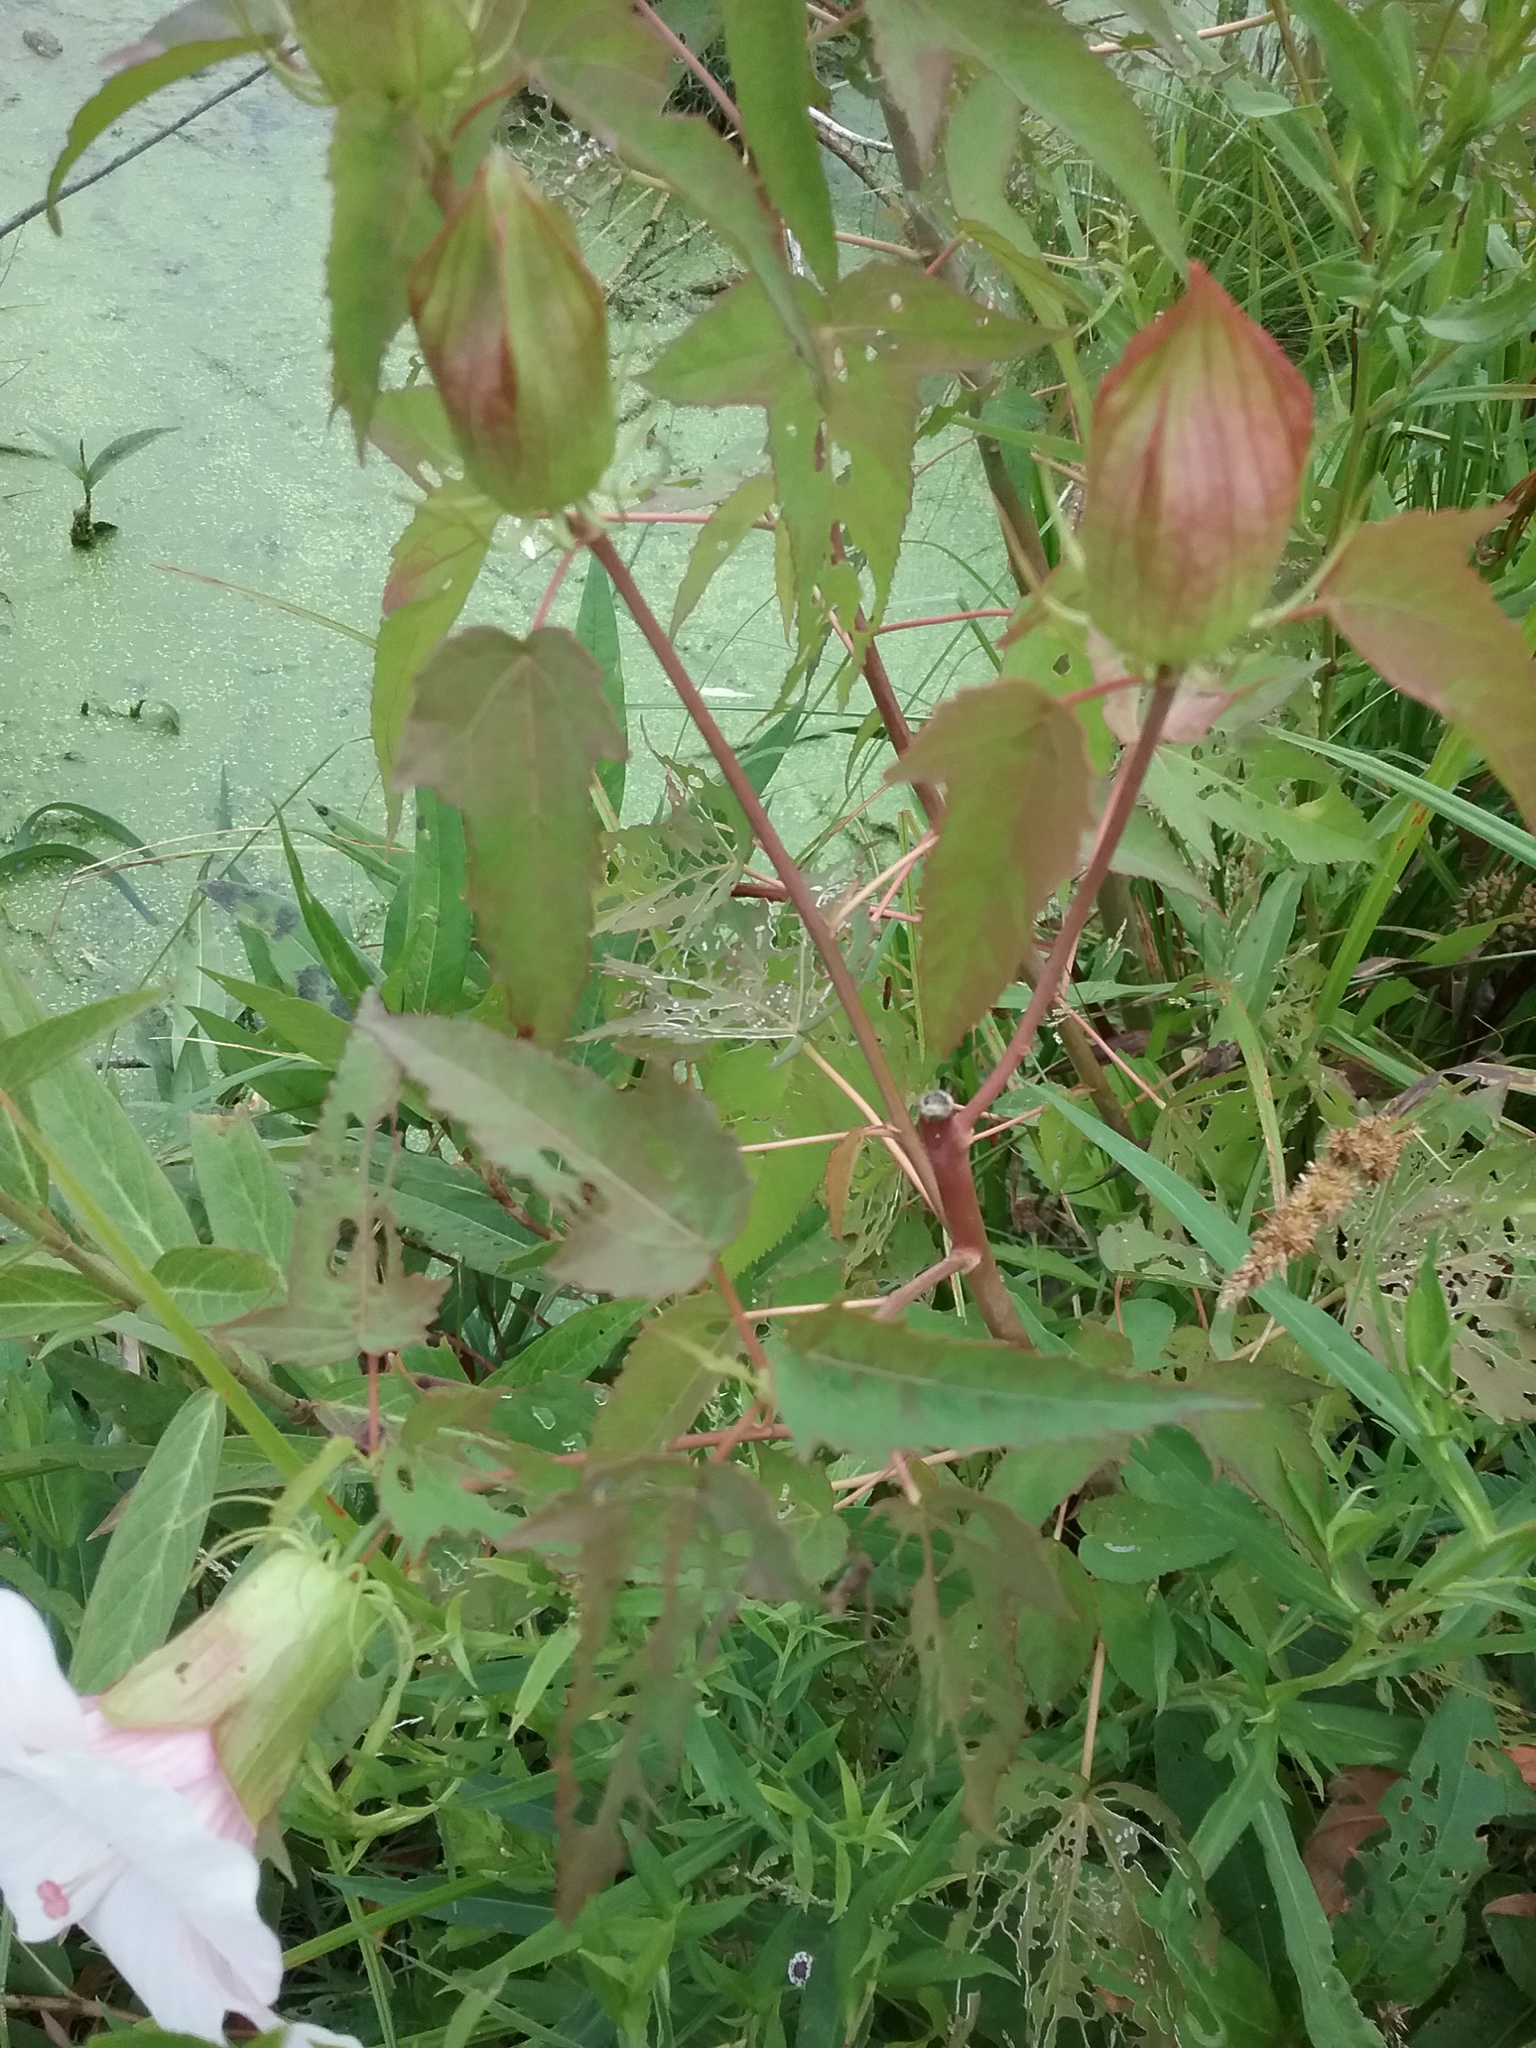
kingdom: Plantae
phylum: Tracheophyta
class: Magnoliopsida
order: Malvales
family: Malvaceae
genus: Hibiscus
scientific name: Hibiscus laevis
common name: Scarlet rose-mallow
